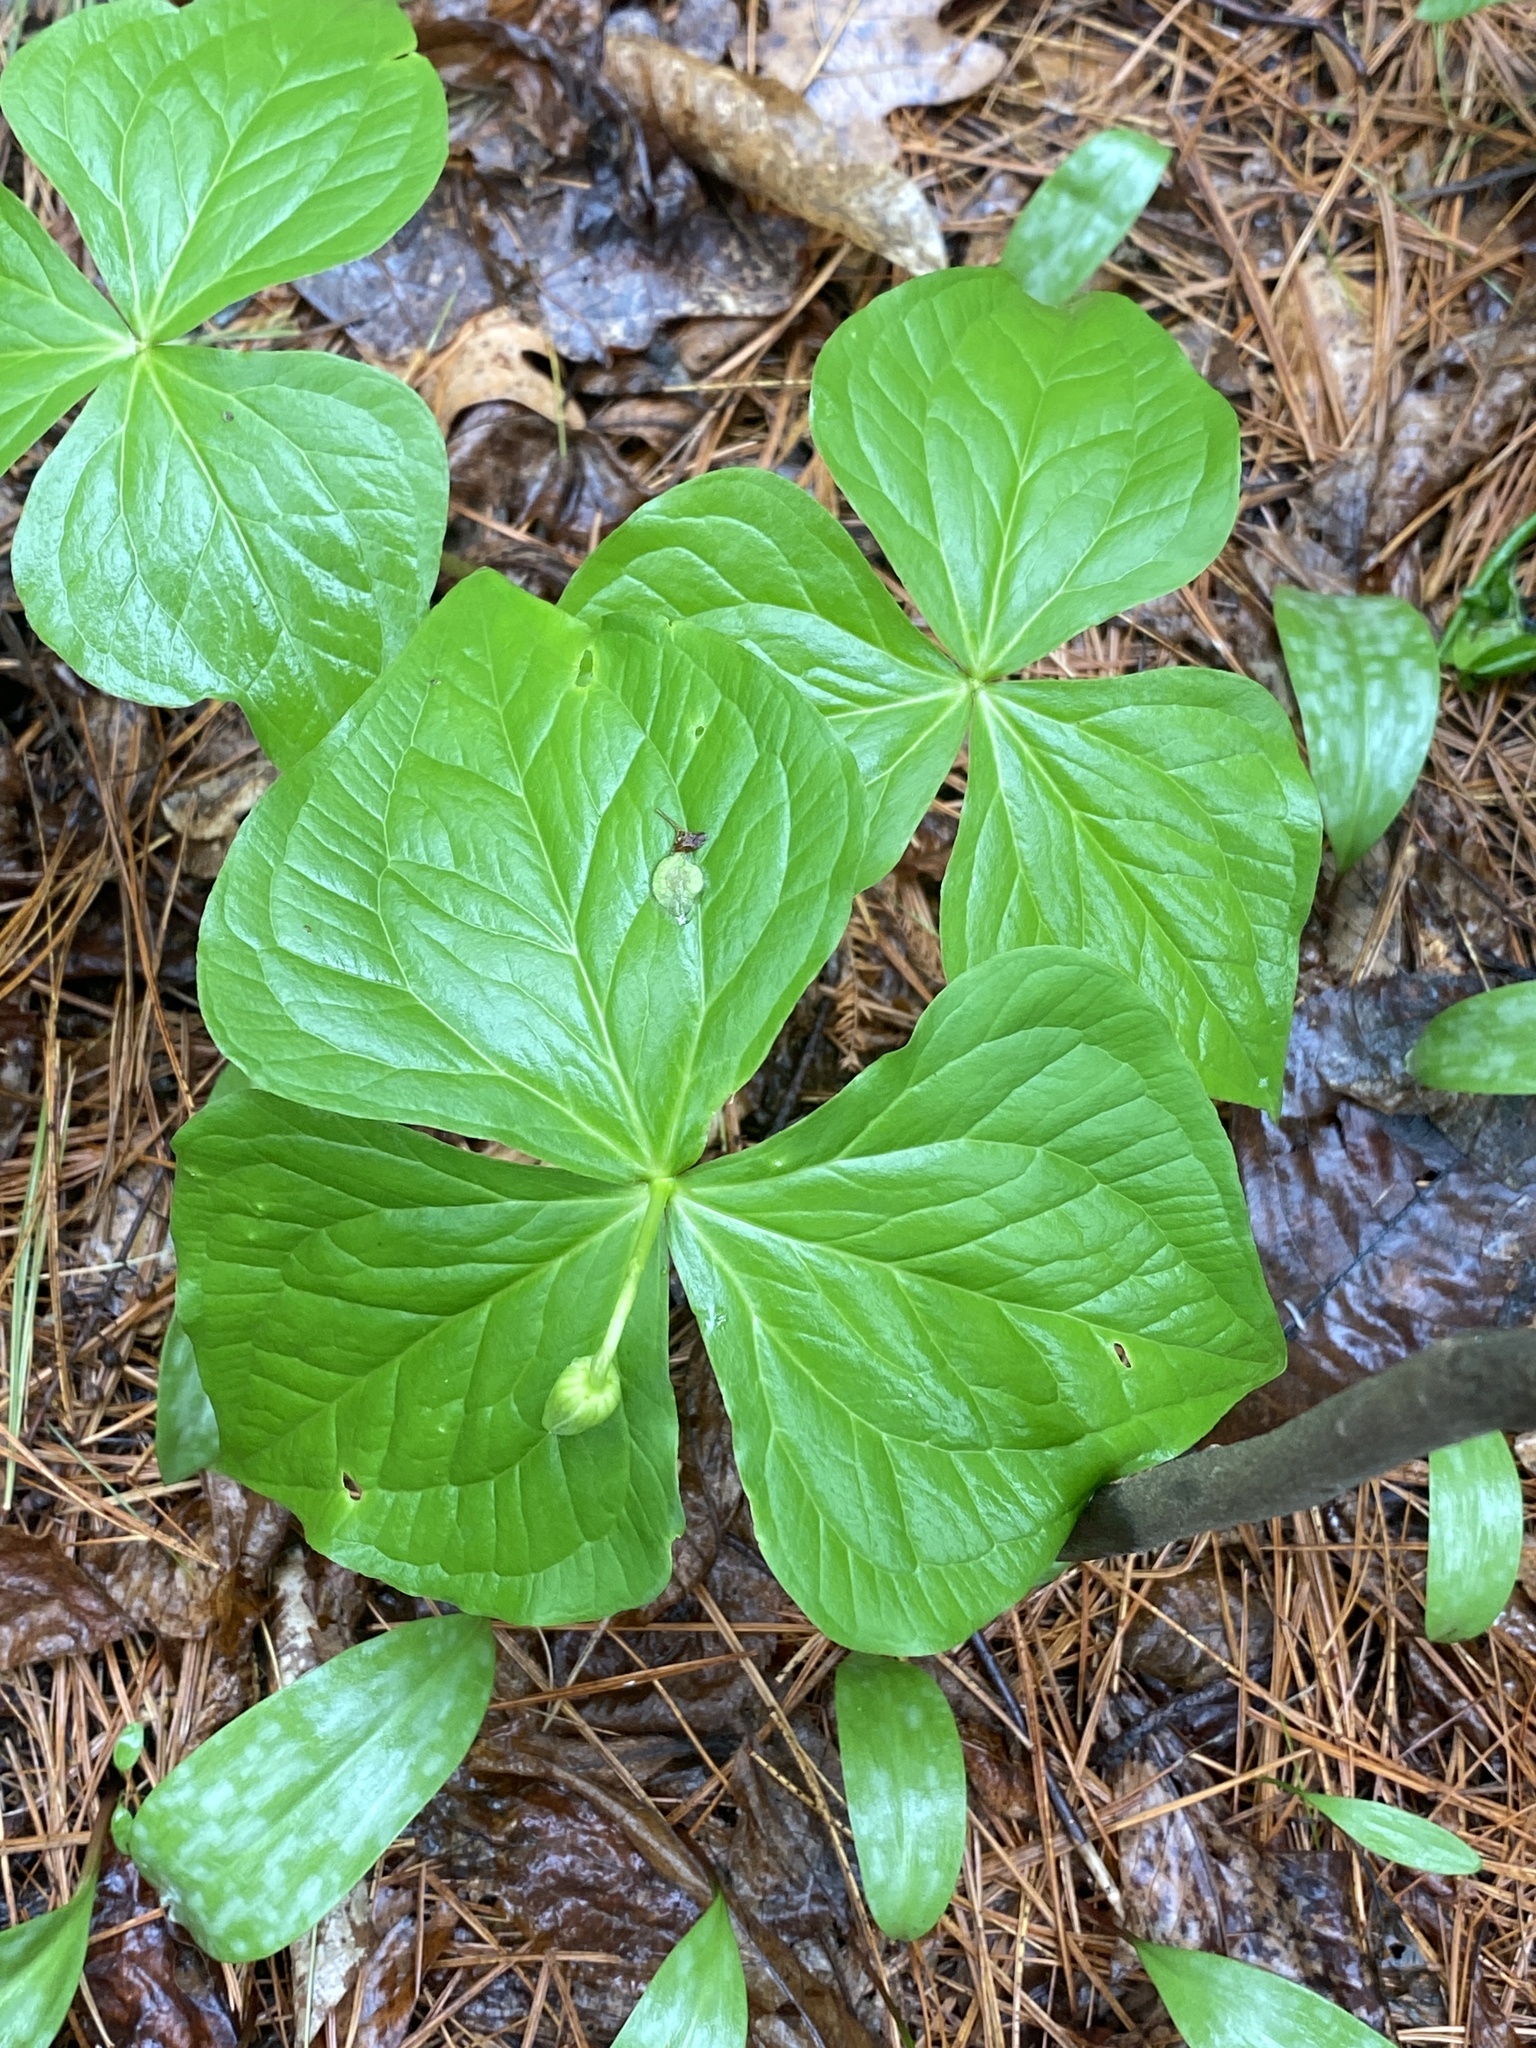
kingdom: Plantae
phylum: Tracheophyta
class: Liliopsida
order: Liliales
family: Melanthiaceae
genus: Trillium
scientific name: Trillium erectum
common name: Purple trillium
